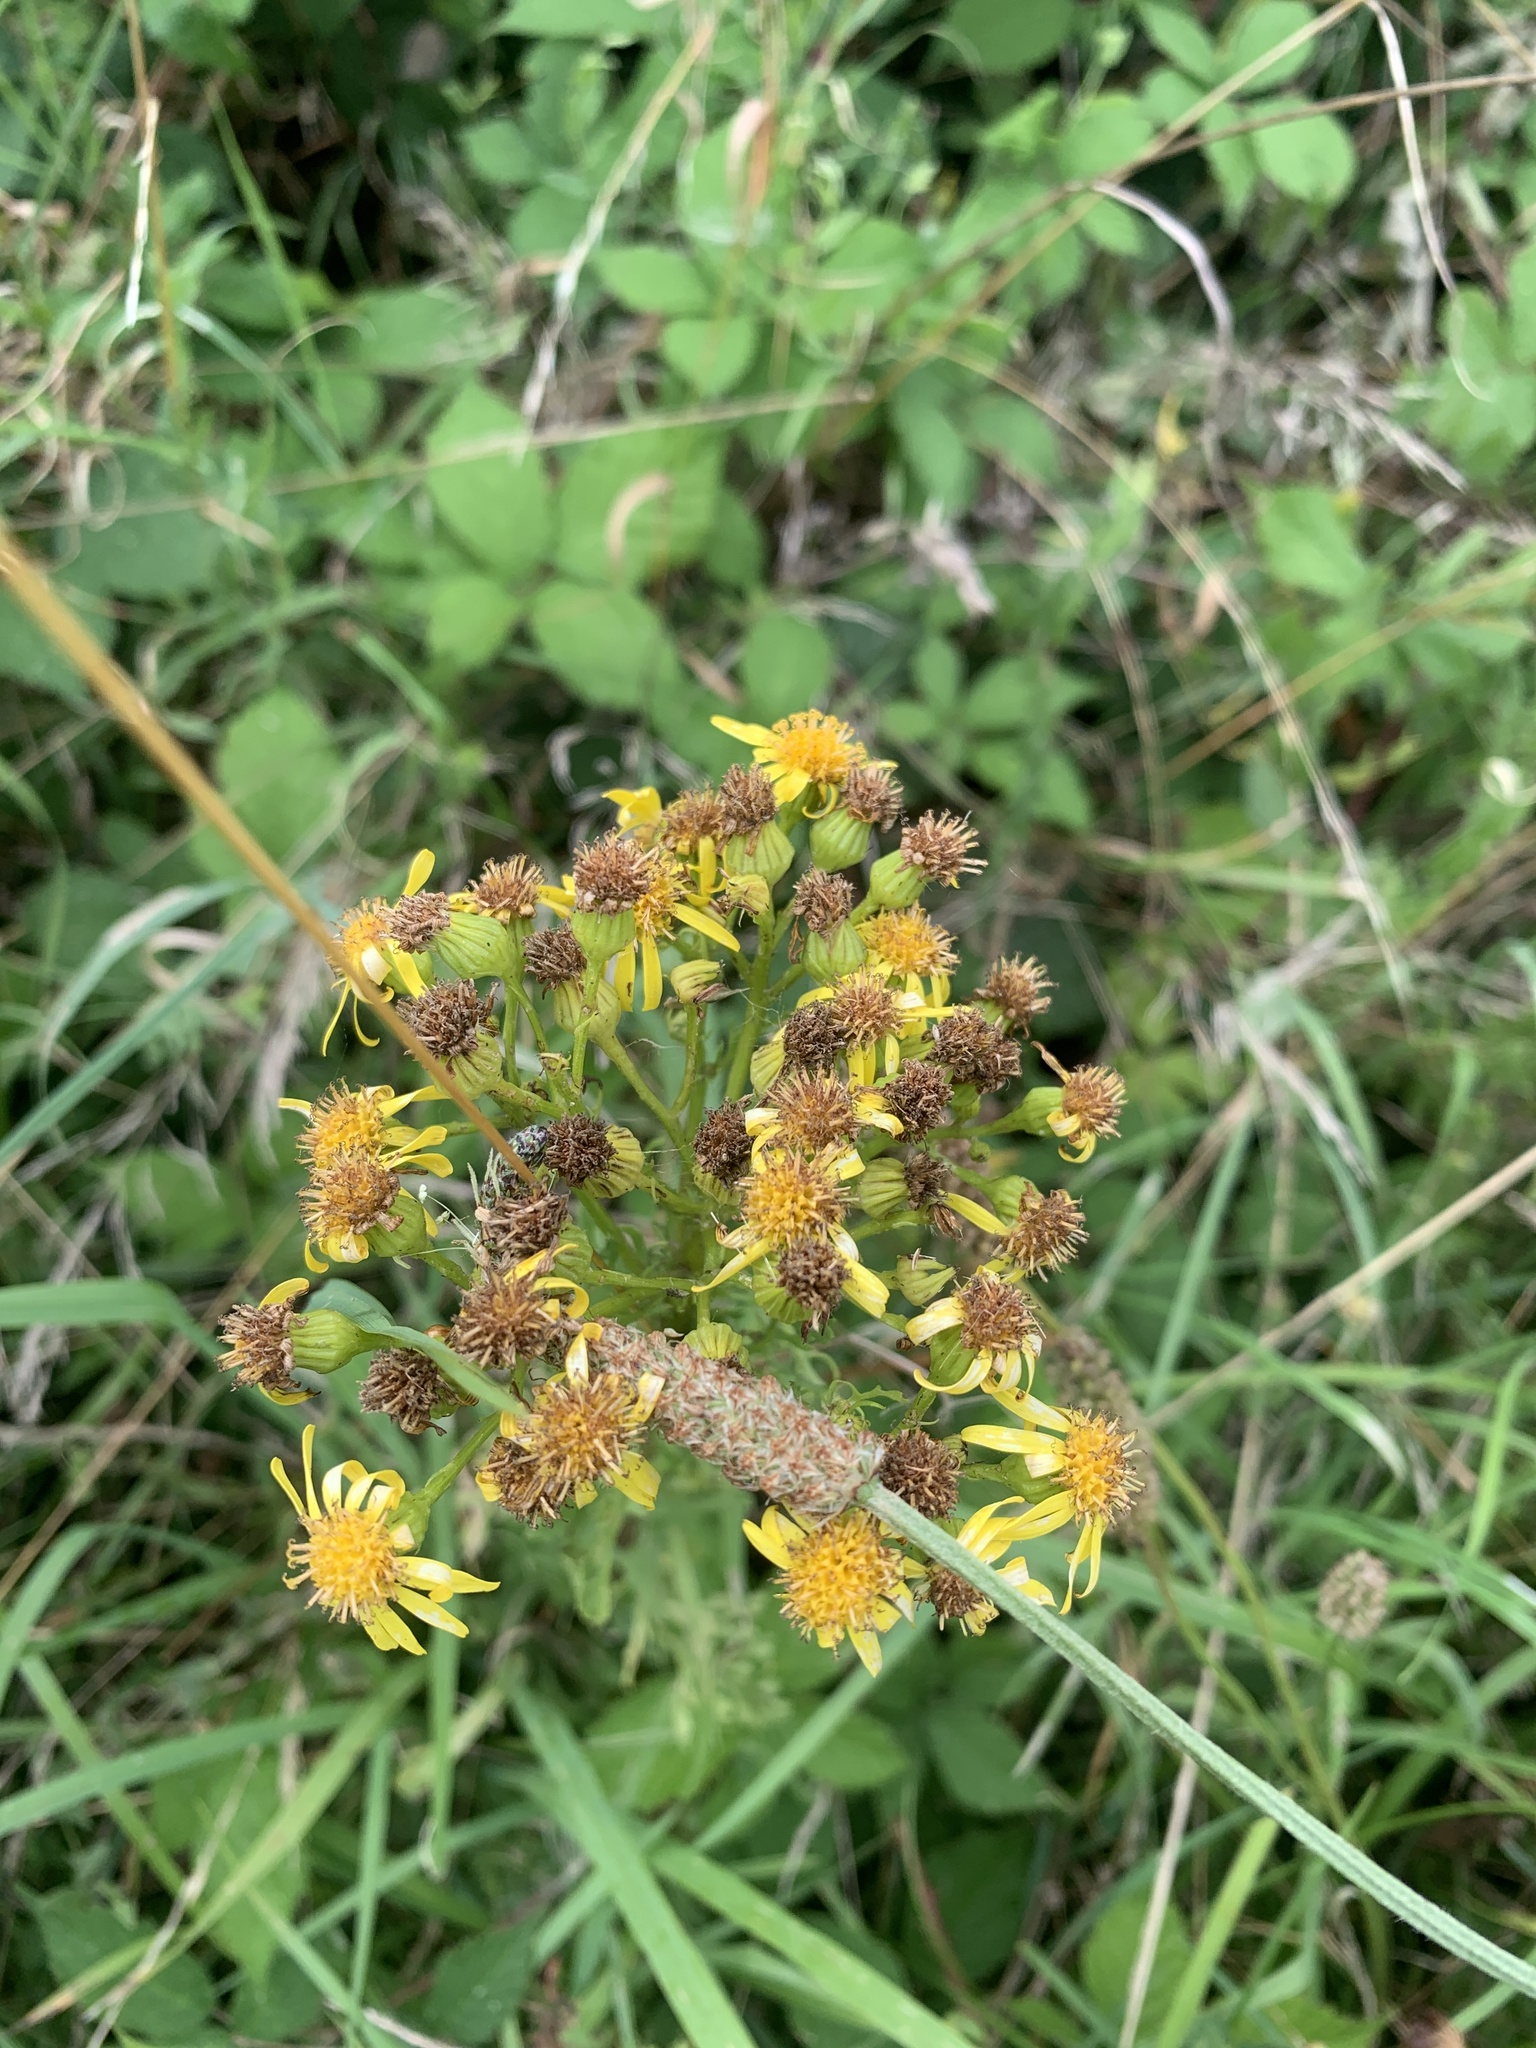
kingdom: Plantae
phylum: Tracheophyta
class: Magnoliopsida
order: Asterales
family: Asteraceae
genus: Jacobaea
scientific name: Jacobaea vulgaris
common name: Stinking willie
